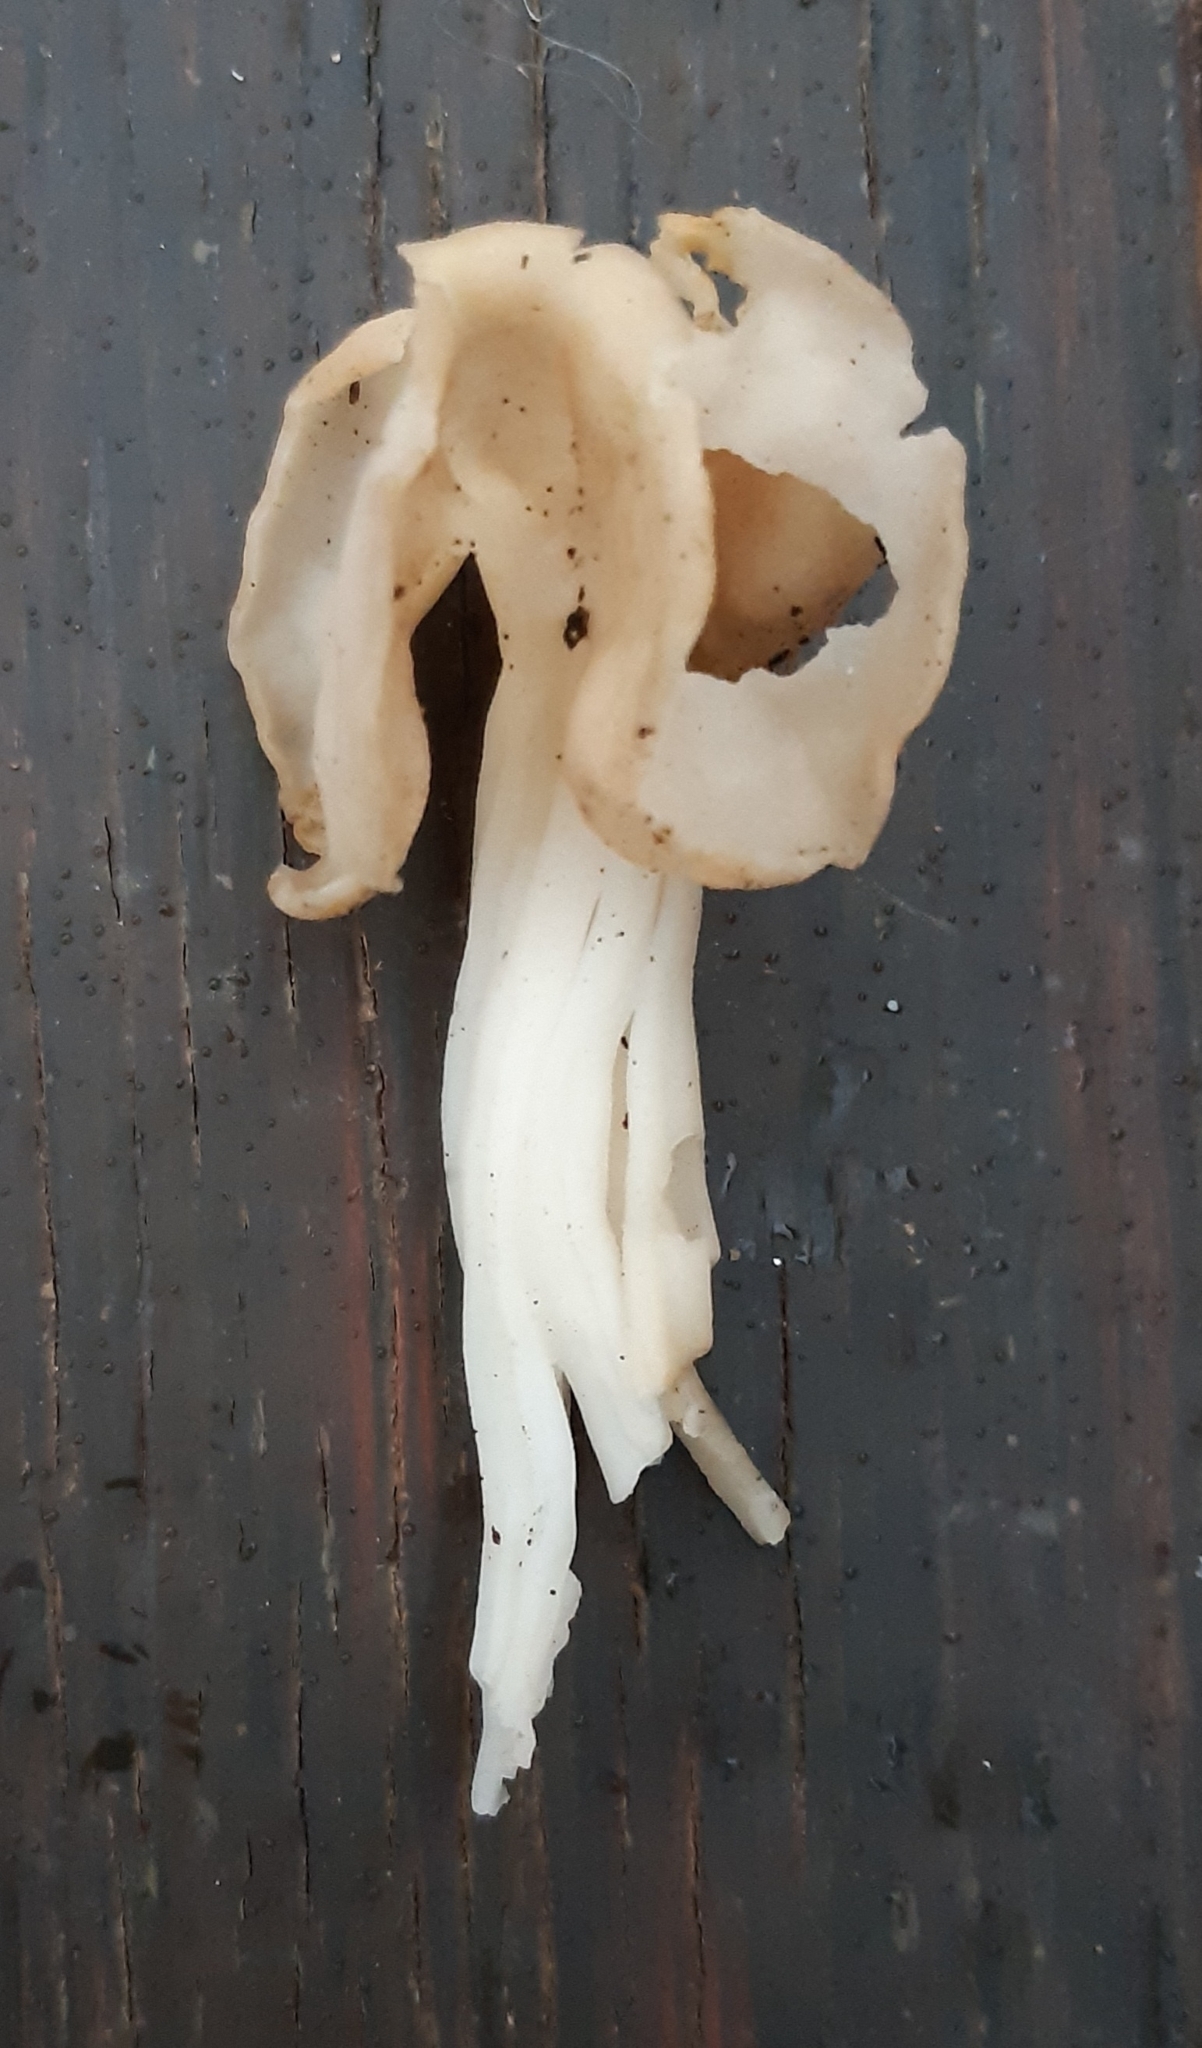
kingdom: Fungi
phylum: Ascomycota
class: Pezizomycetes
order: Pezizales
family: Helvellaceae
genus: Helvella
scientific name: Helvella crispa
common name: White saddle
